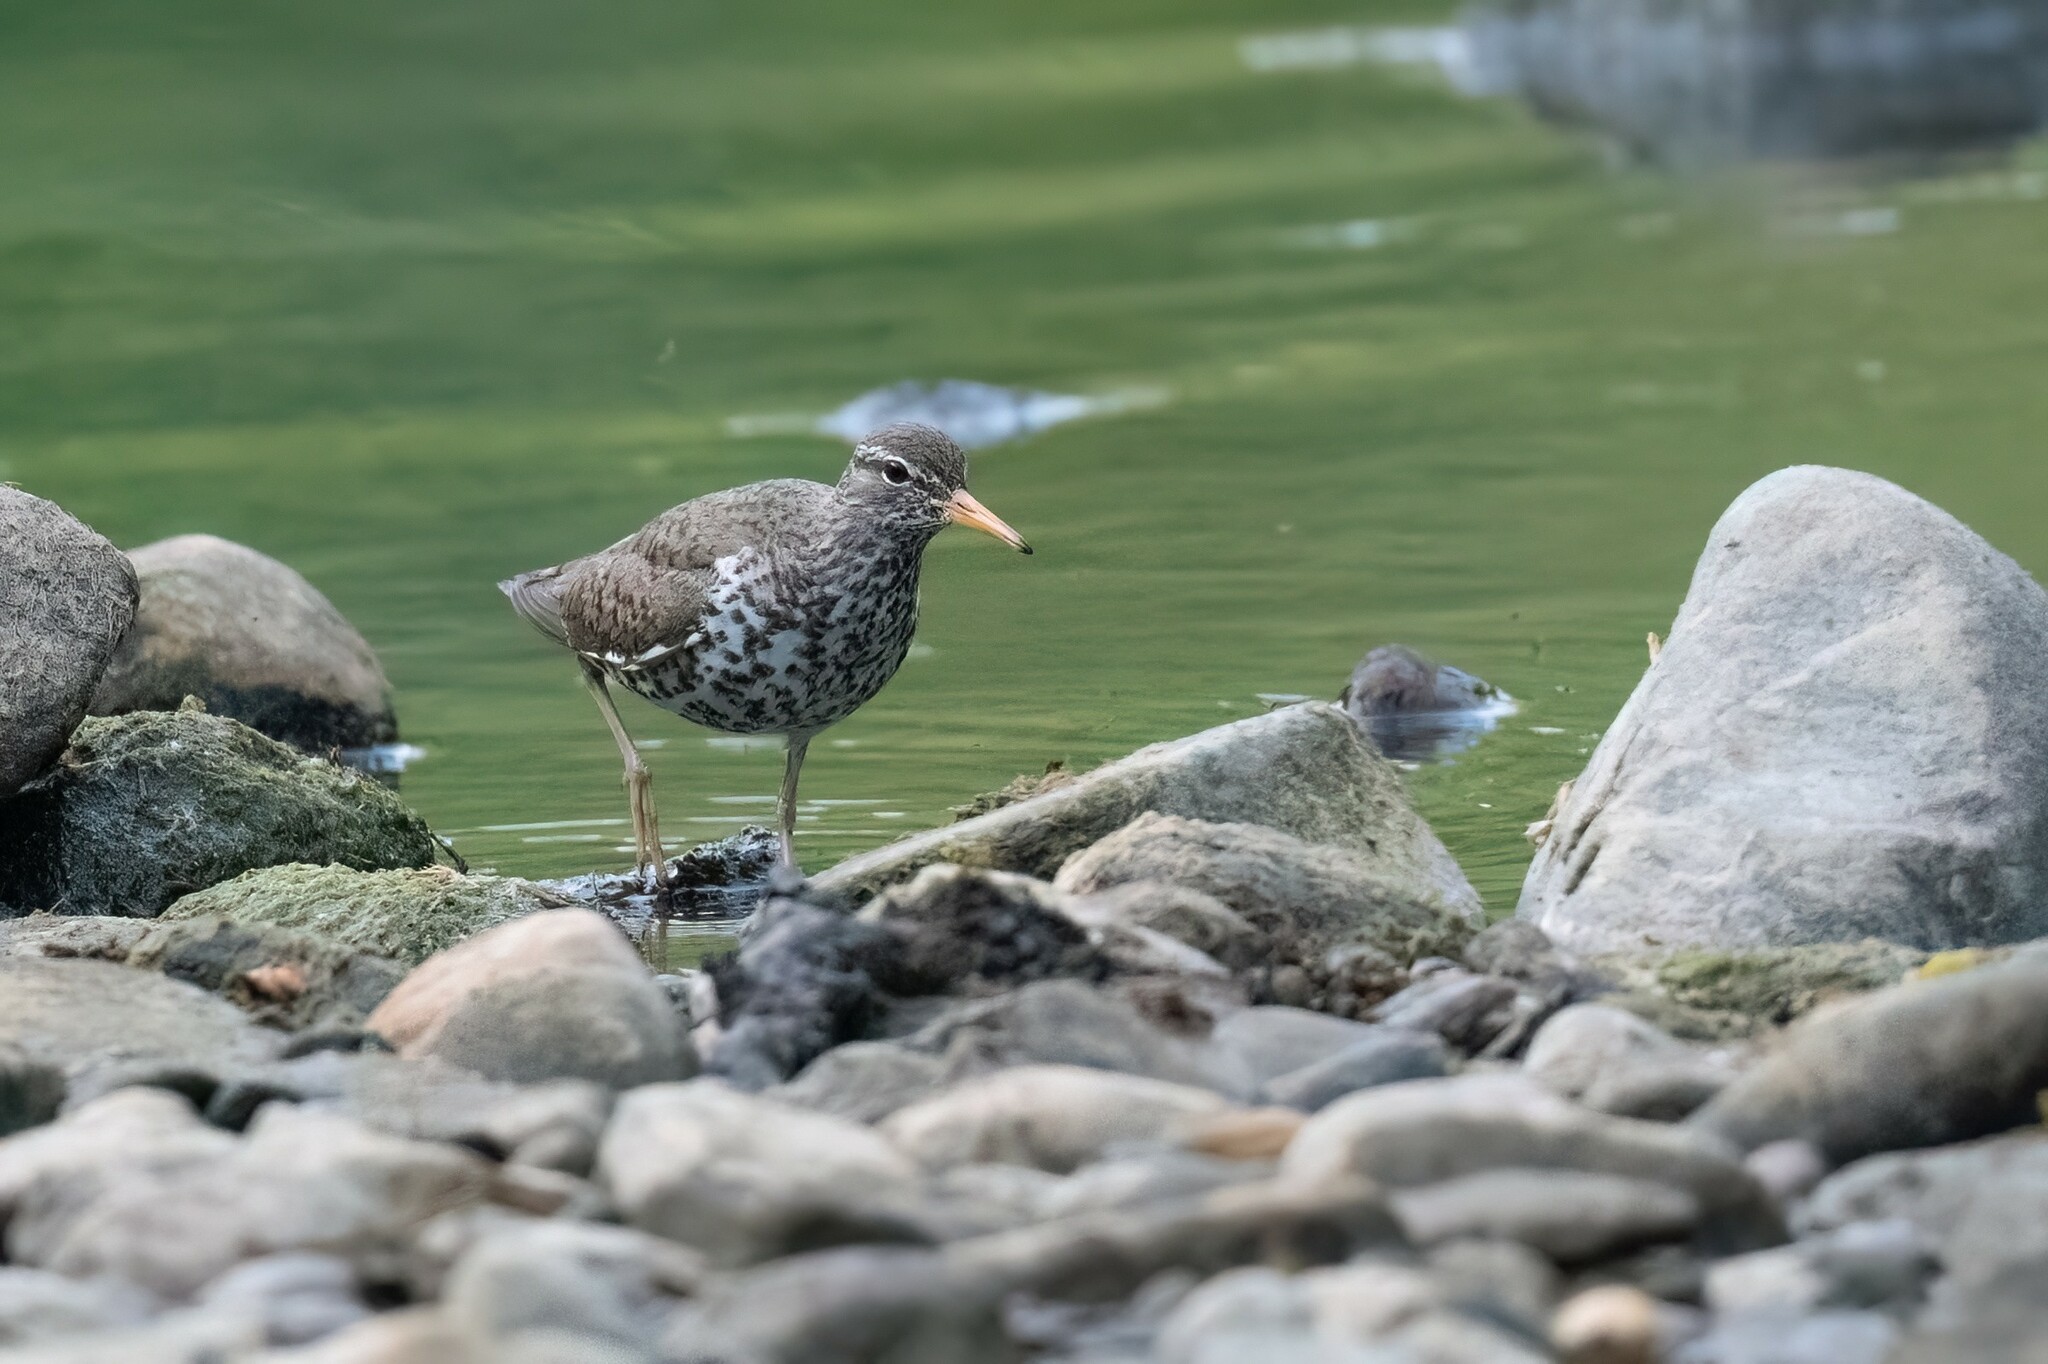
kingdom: Animalia
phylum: Chordata
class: Aves
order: Charadriiformes
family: Scolopacidae
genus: Actitis
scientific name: Actitis macularius
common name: Spotted sandpiper
